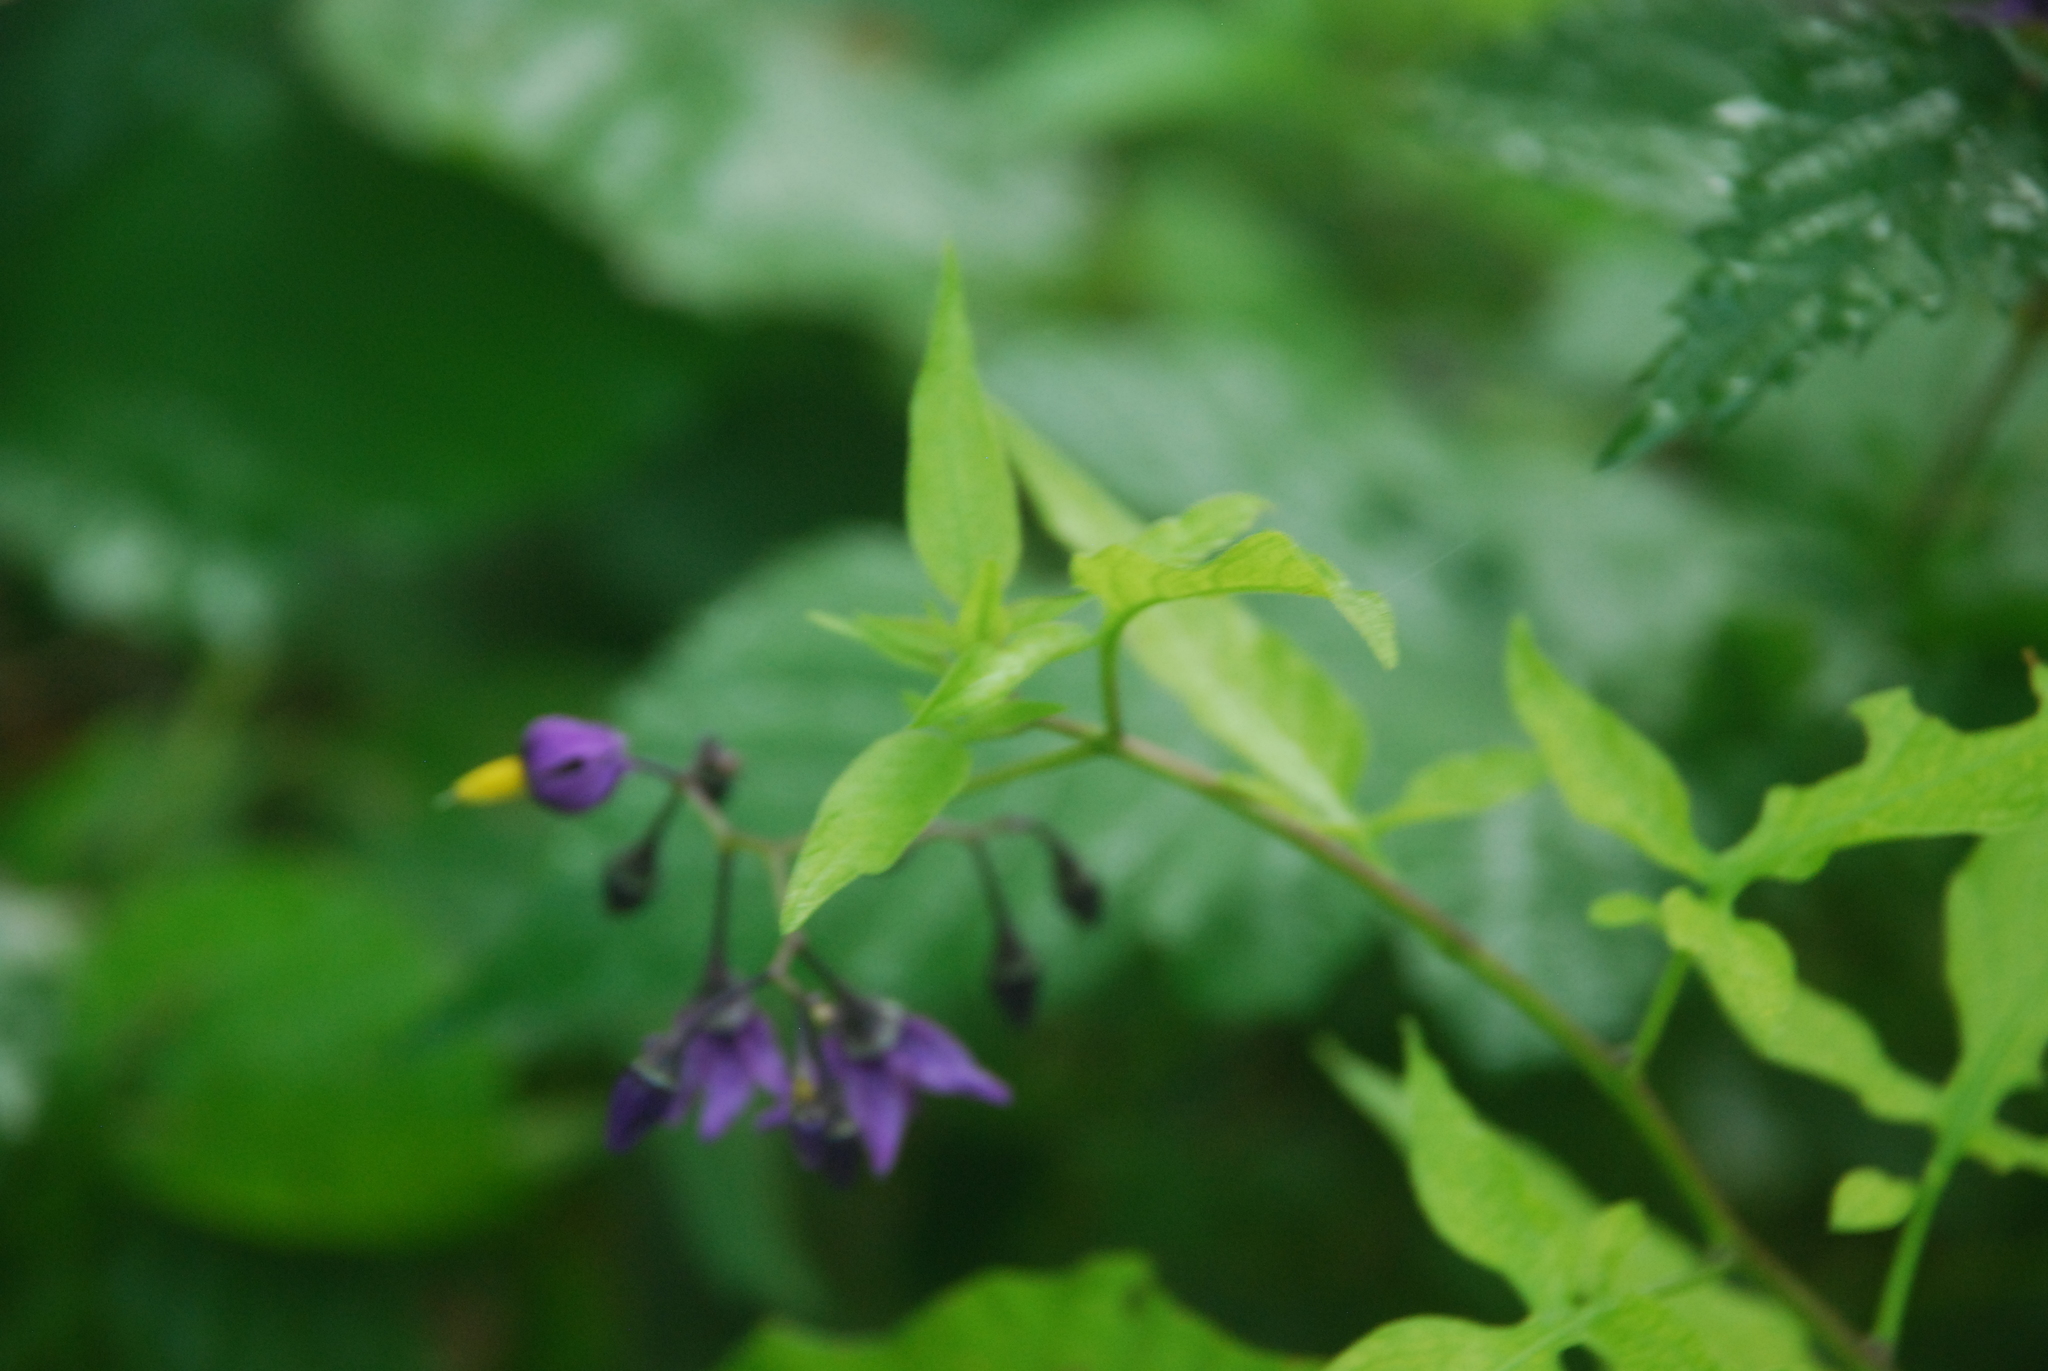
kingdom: Plantae
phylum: Tracheophyta
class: Magnoliopsida
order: Solanales
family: Solanaceae
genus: Solanum
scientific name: Solanum dulcamara
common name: Climbing nightshade
